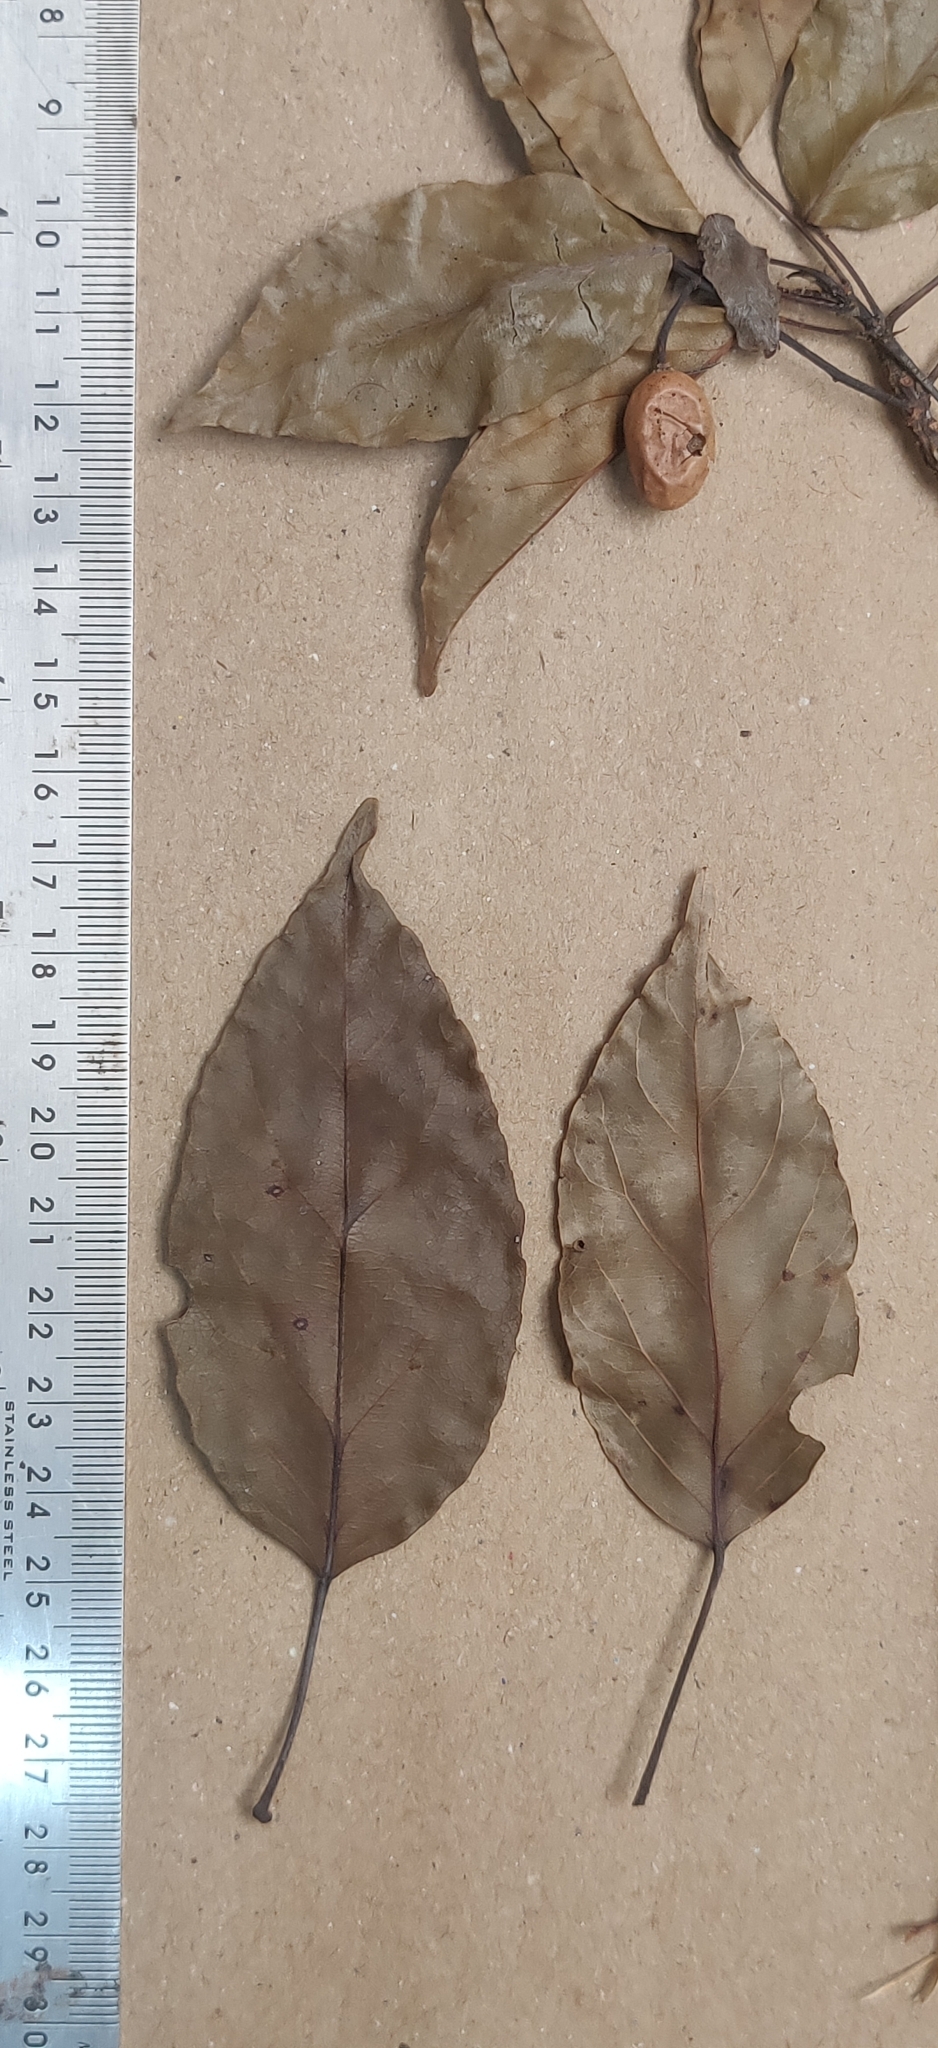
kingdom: Plantae
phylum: Tracheophyta
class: Magnoliopsida
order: Oxalidales
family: Elaeocarpaceae
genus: Elaeocarpus
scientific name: Elaeocarpus munroii
